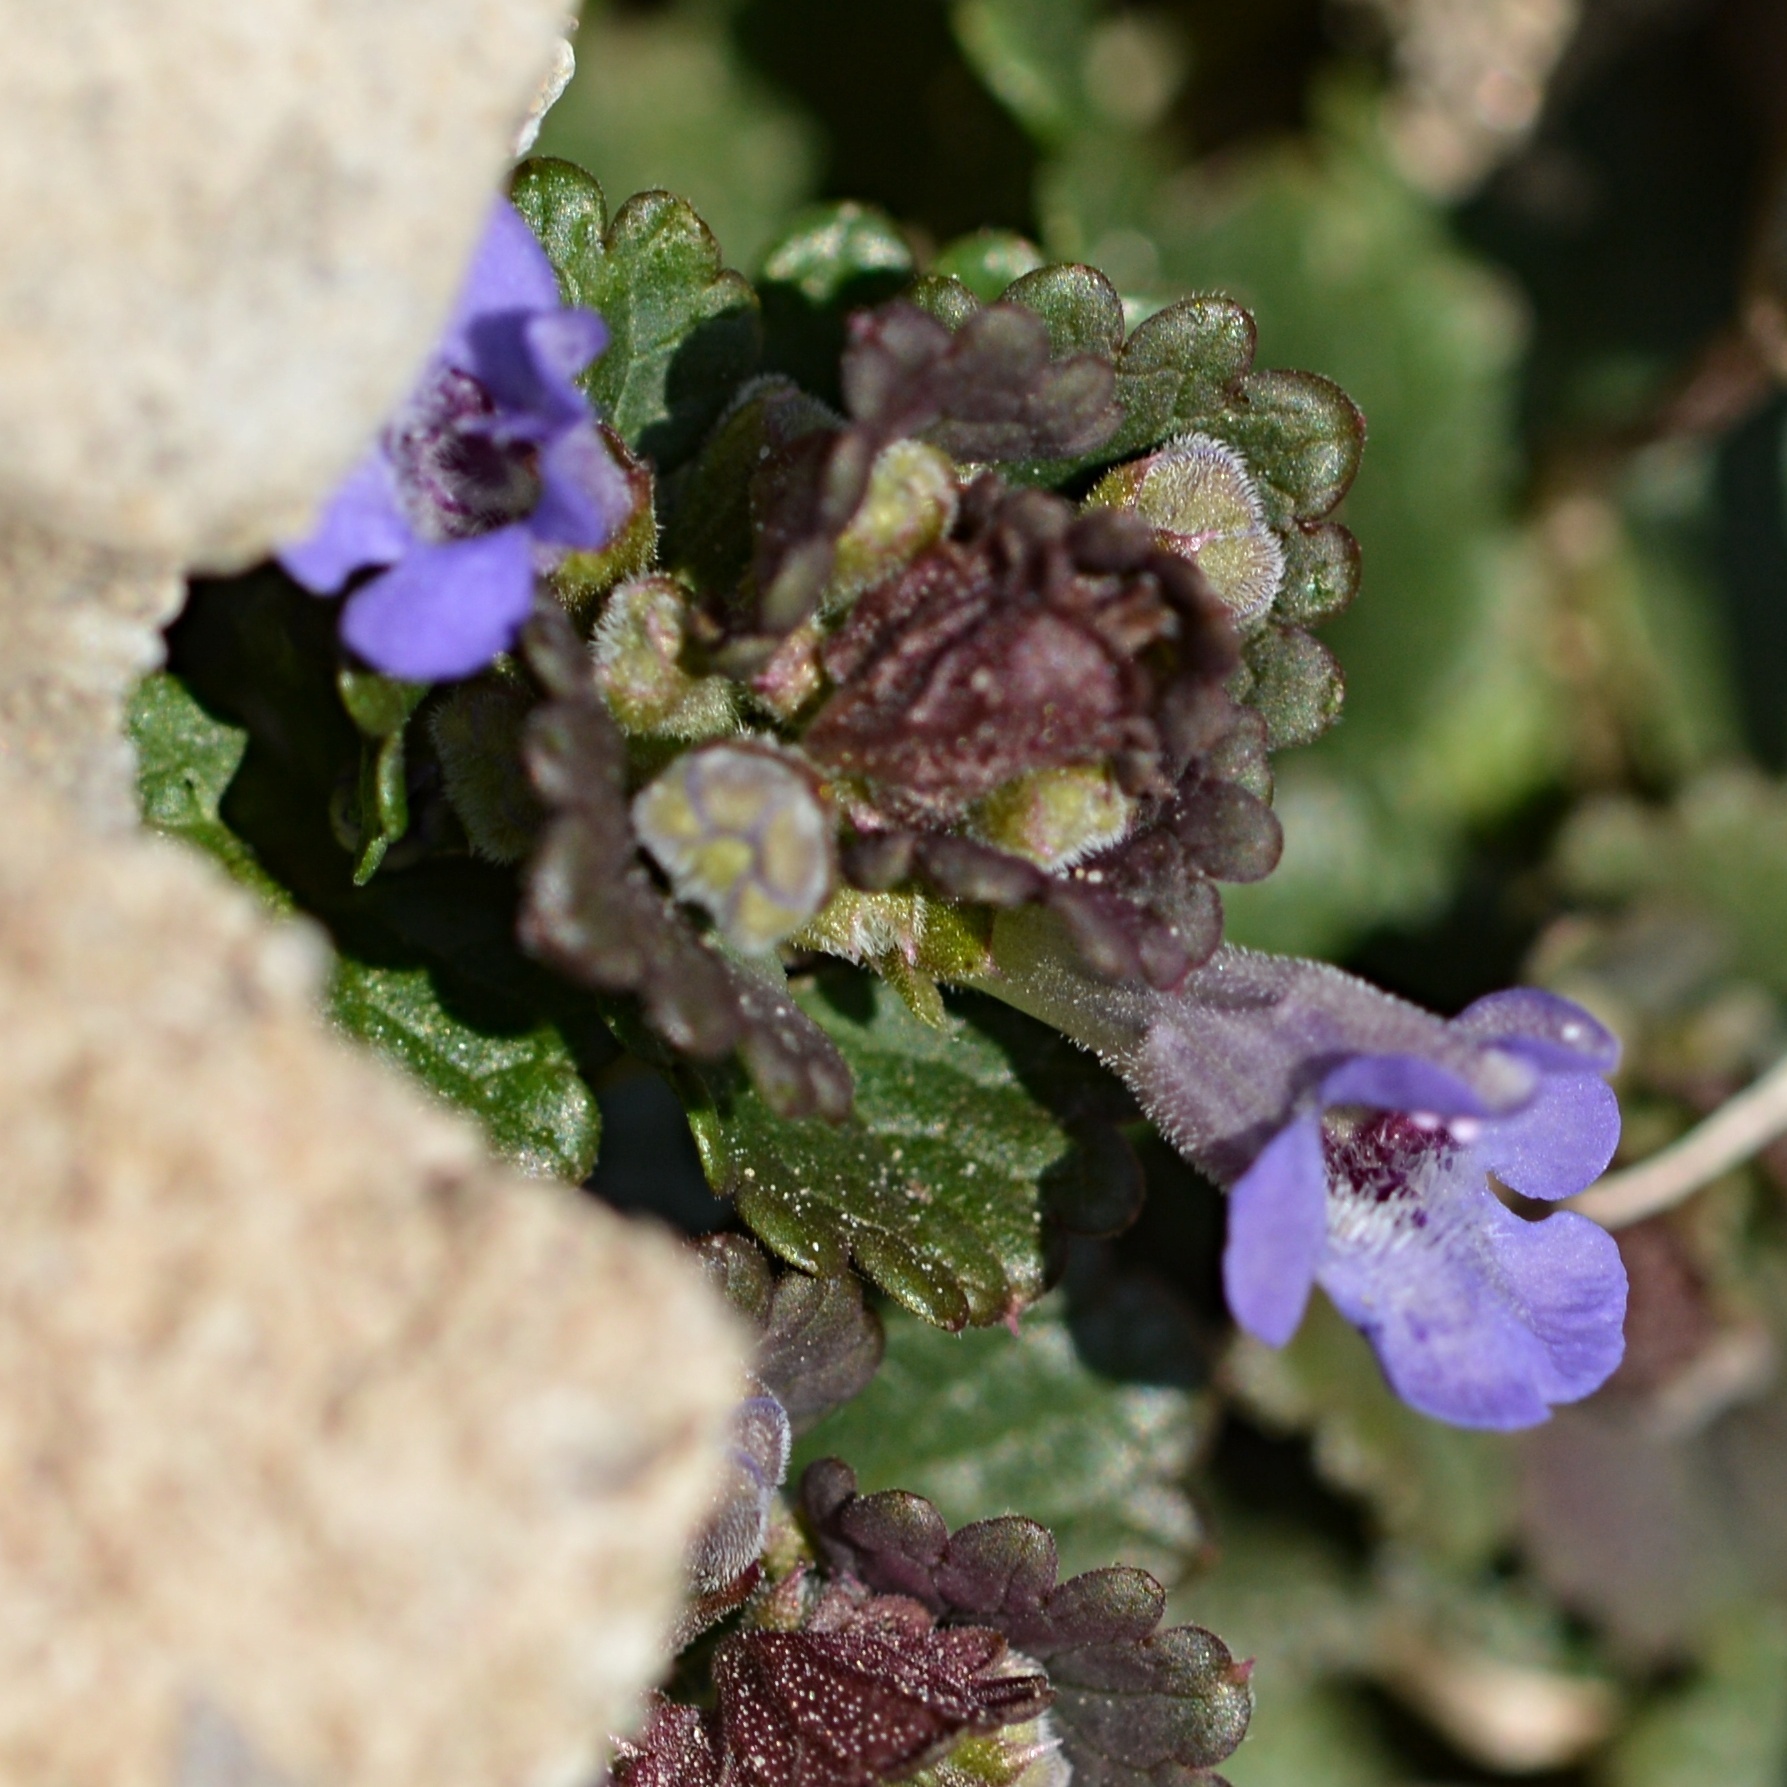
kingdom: Plantae
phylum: Tracheophyta
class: Magnoliopsida
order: Lamiales
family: Lamiaceae
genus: Glechoma
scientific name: Glechoma hederacea
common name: Ground ivy
